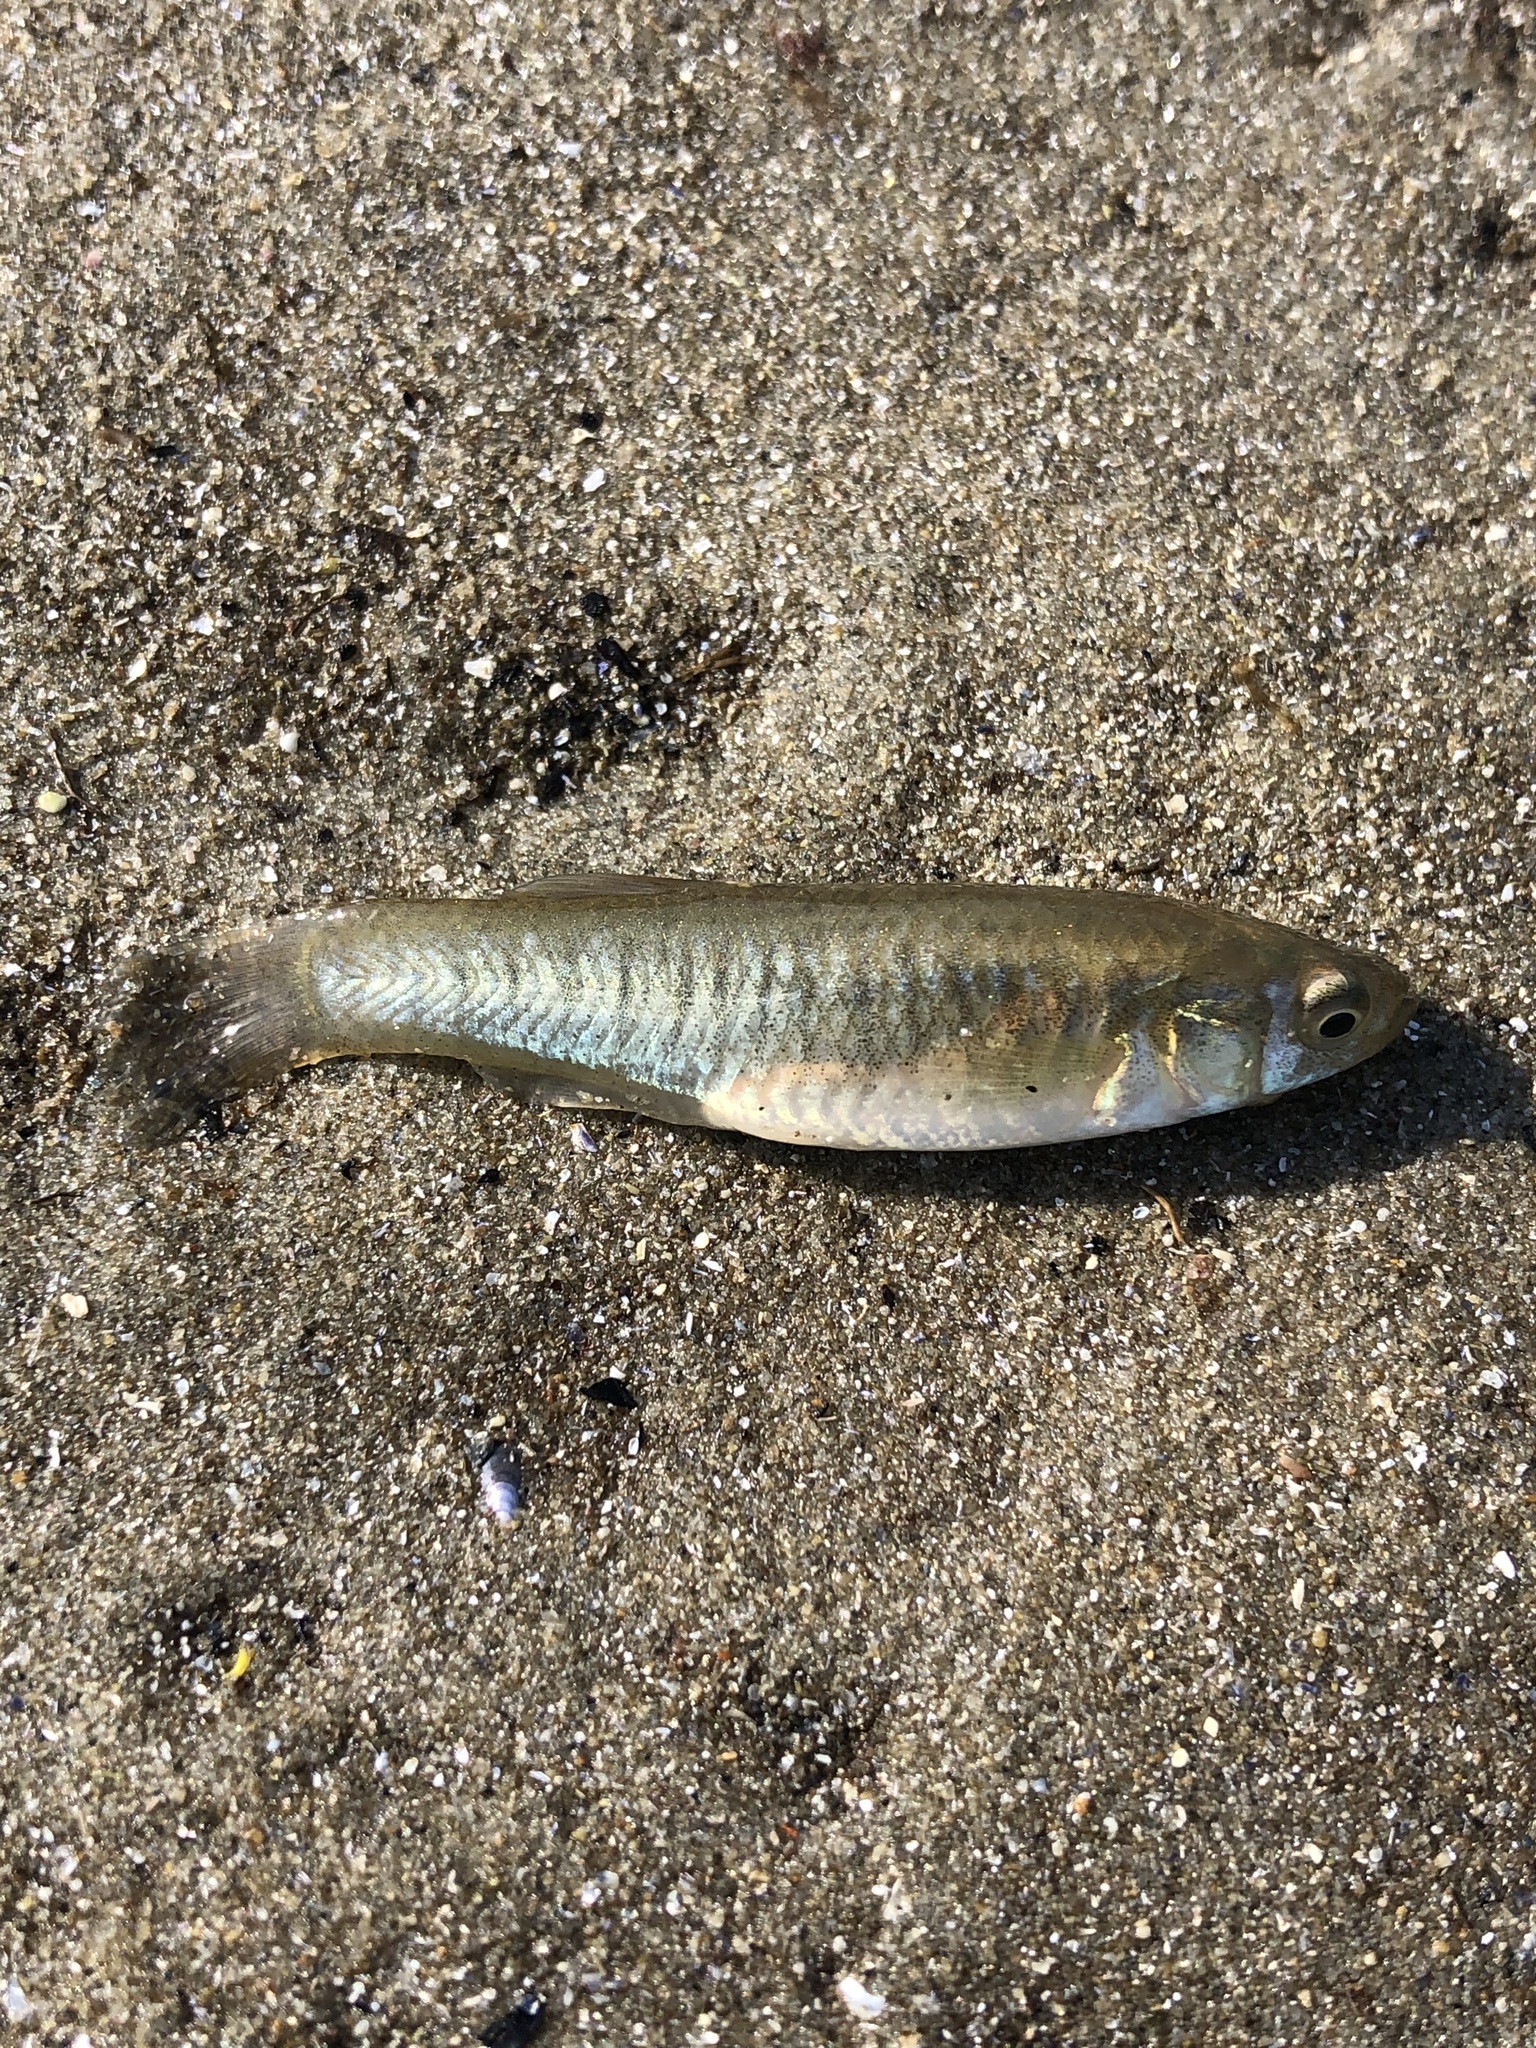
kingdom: Animalia
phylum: Chordata
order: Cyprinodontiformes
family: Fundulidae
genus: Fundulus
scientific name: Fundulus heteroclitus
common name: Mummichog
